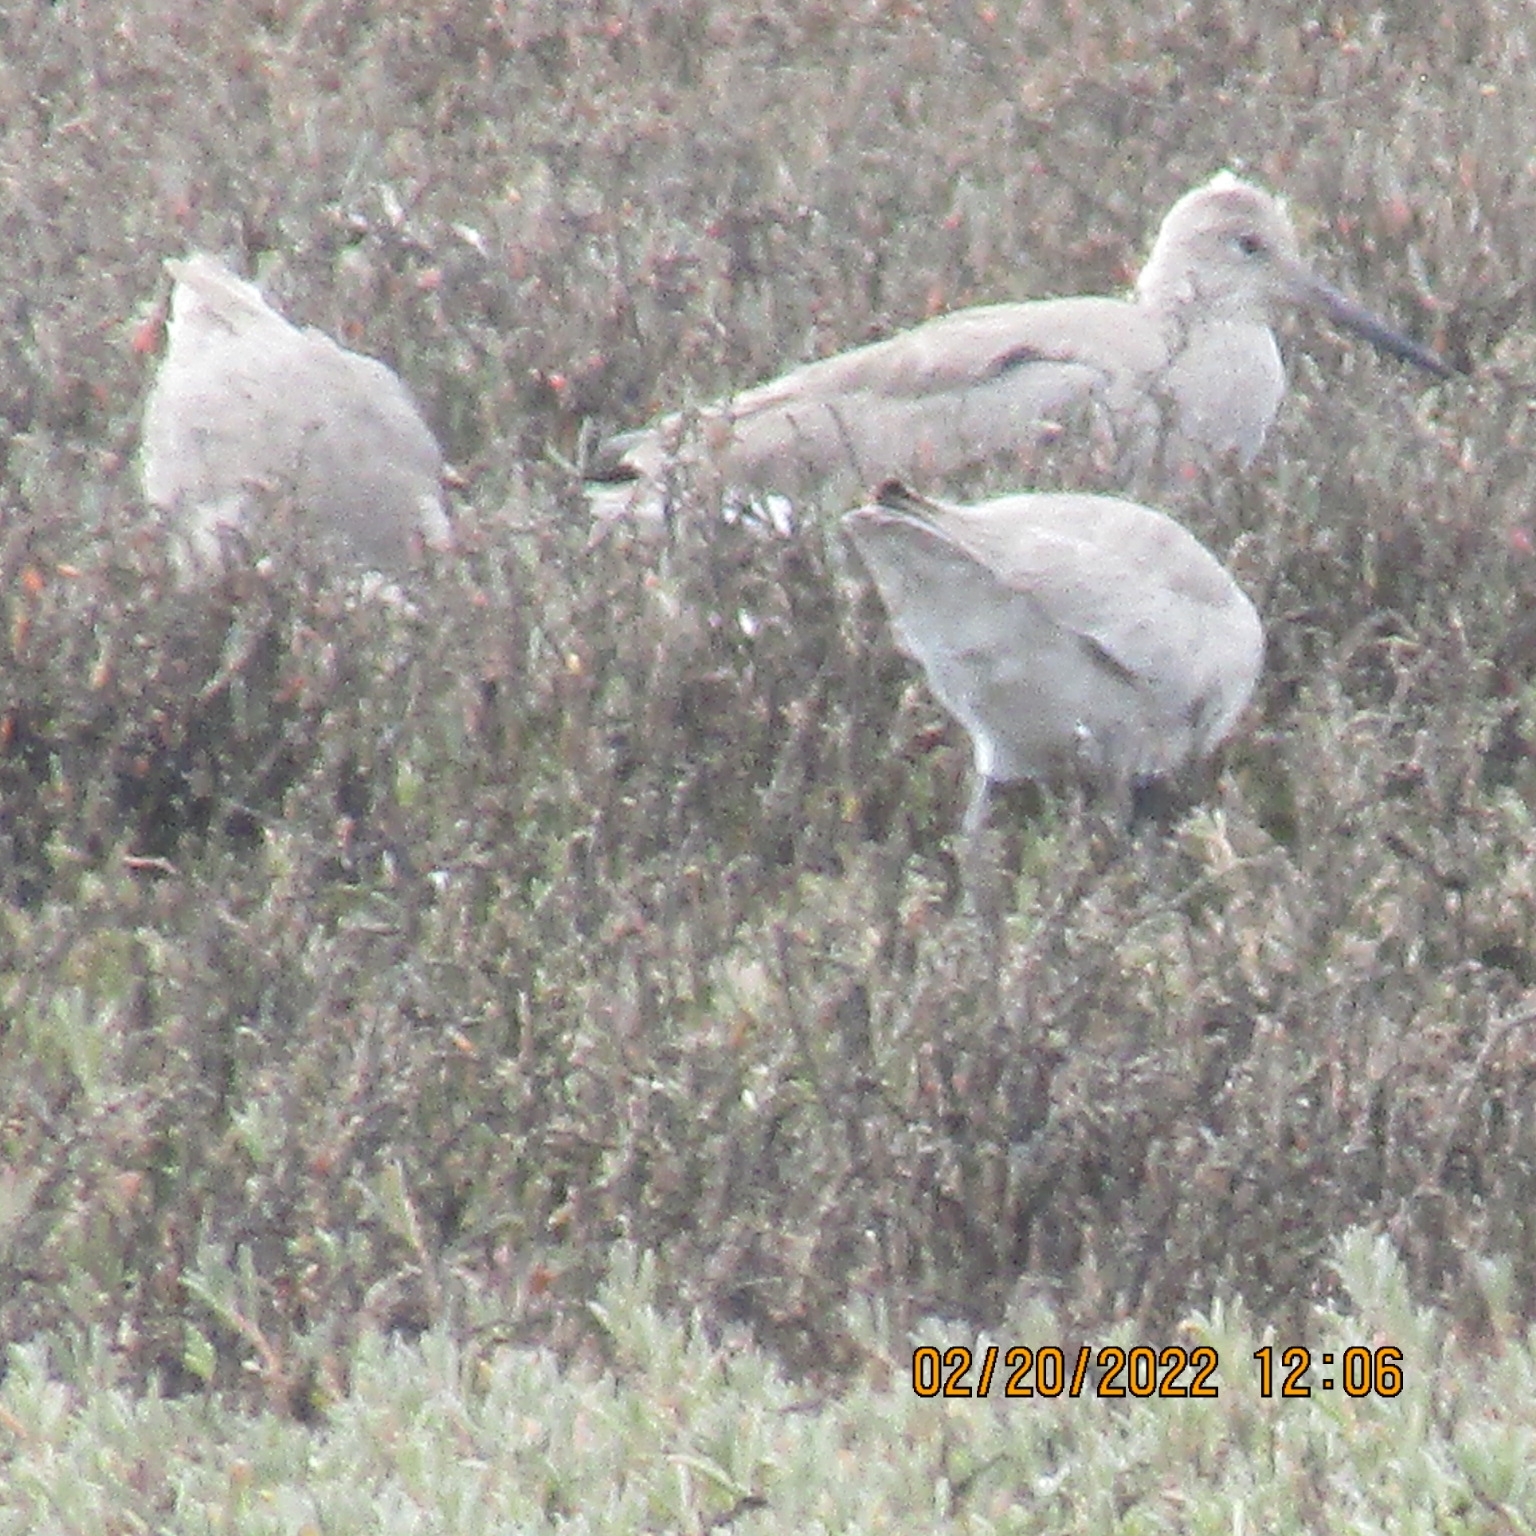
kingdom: Animalia
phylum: Chordata
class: Aves
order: Charadriiformes
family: Scolopacidae
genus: Tringa
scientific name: Tringa semipalmata
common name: Willet
